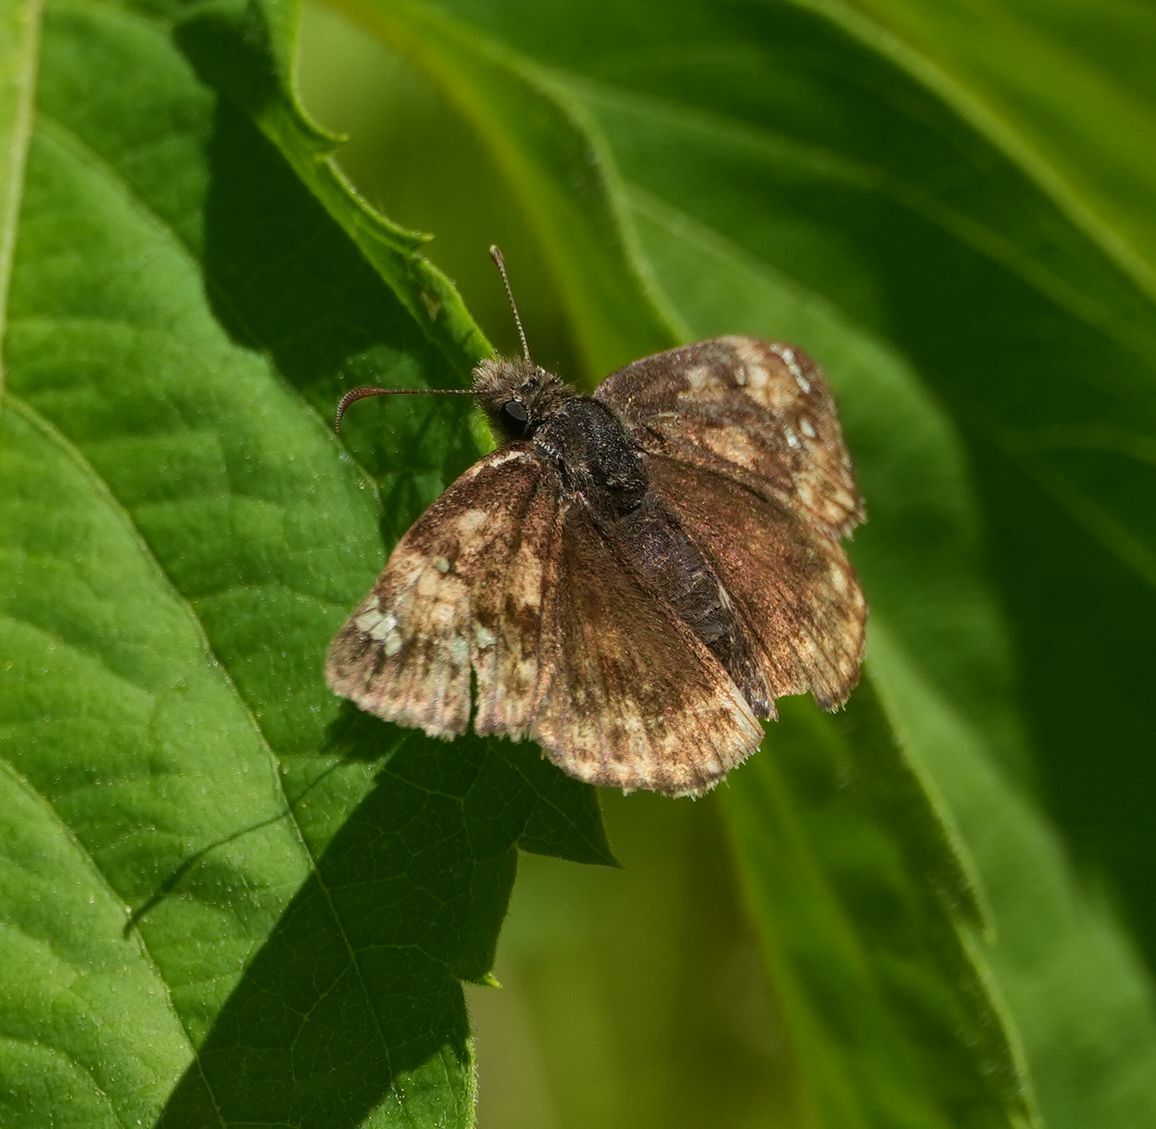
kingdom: Animalia
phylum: Arthropoda
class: Insecta
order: Lepidoptera
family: Hesperiidae
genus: Erynnis
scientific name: Erynnis juvenalis
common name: Juvenal's duskywing
